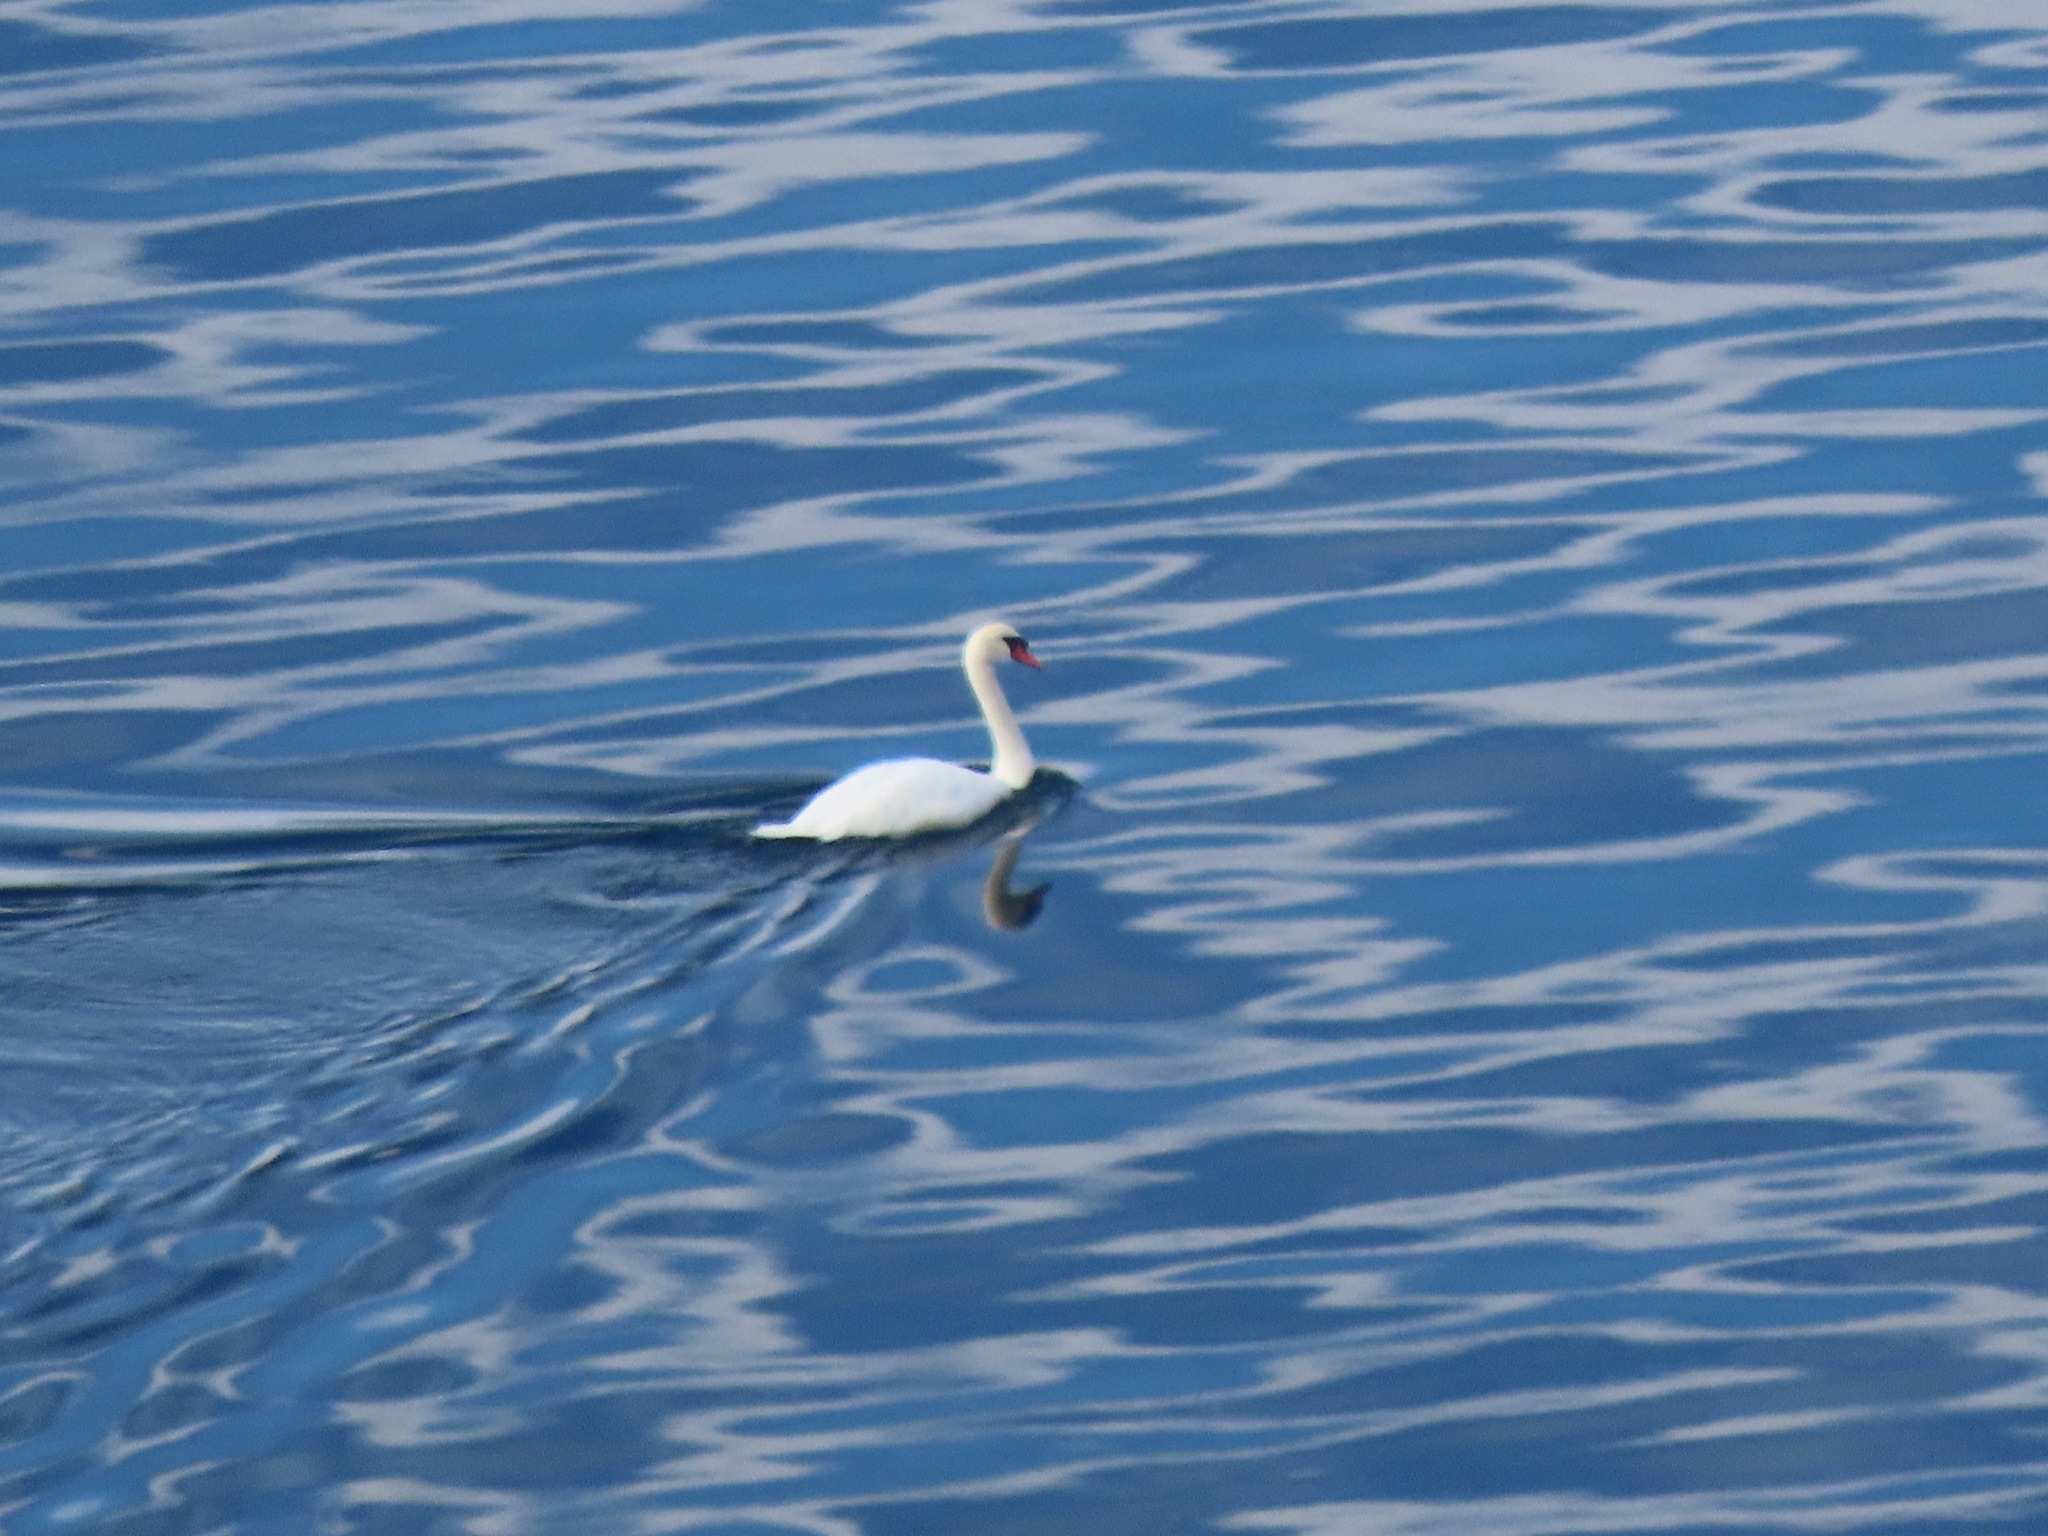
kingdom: Animalia
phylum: Chordata
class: Aves
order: Anseriformes
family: Anatidae
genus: Cygnus
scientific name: Cygnus olor
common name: Mute swan
